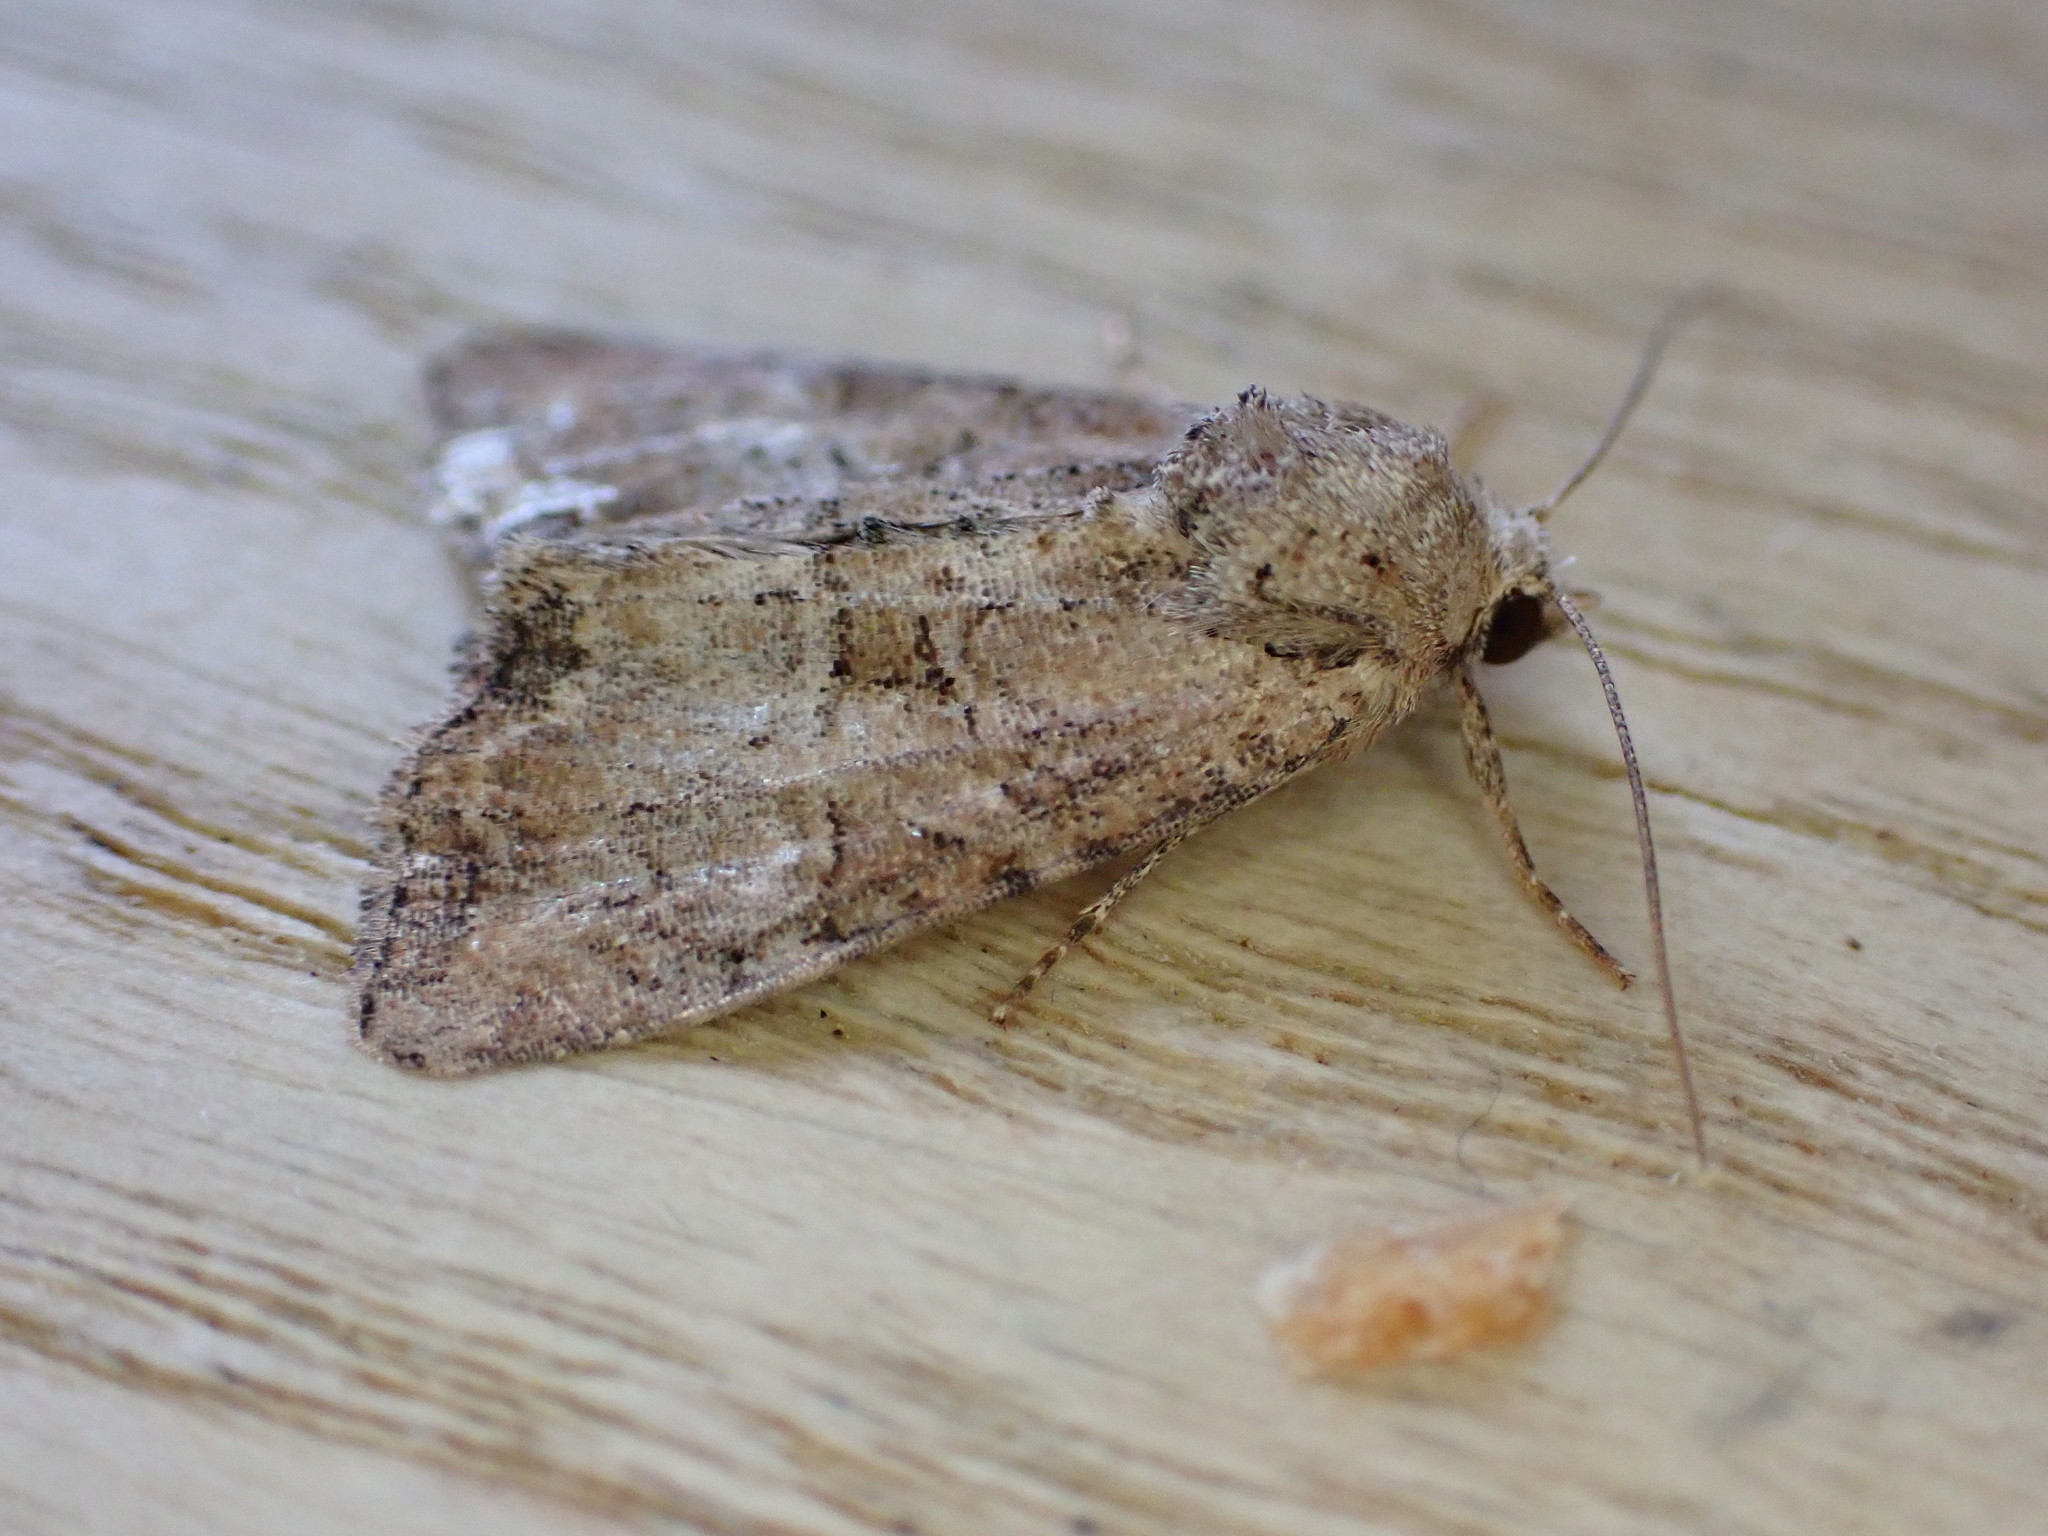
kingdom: Animalia
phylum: Arthropoda
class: Insecta
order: Lepidoptera
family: Noctuidae
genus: Mesoligia
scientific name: Mesoligia furuncula
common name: Cloaked minor
